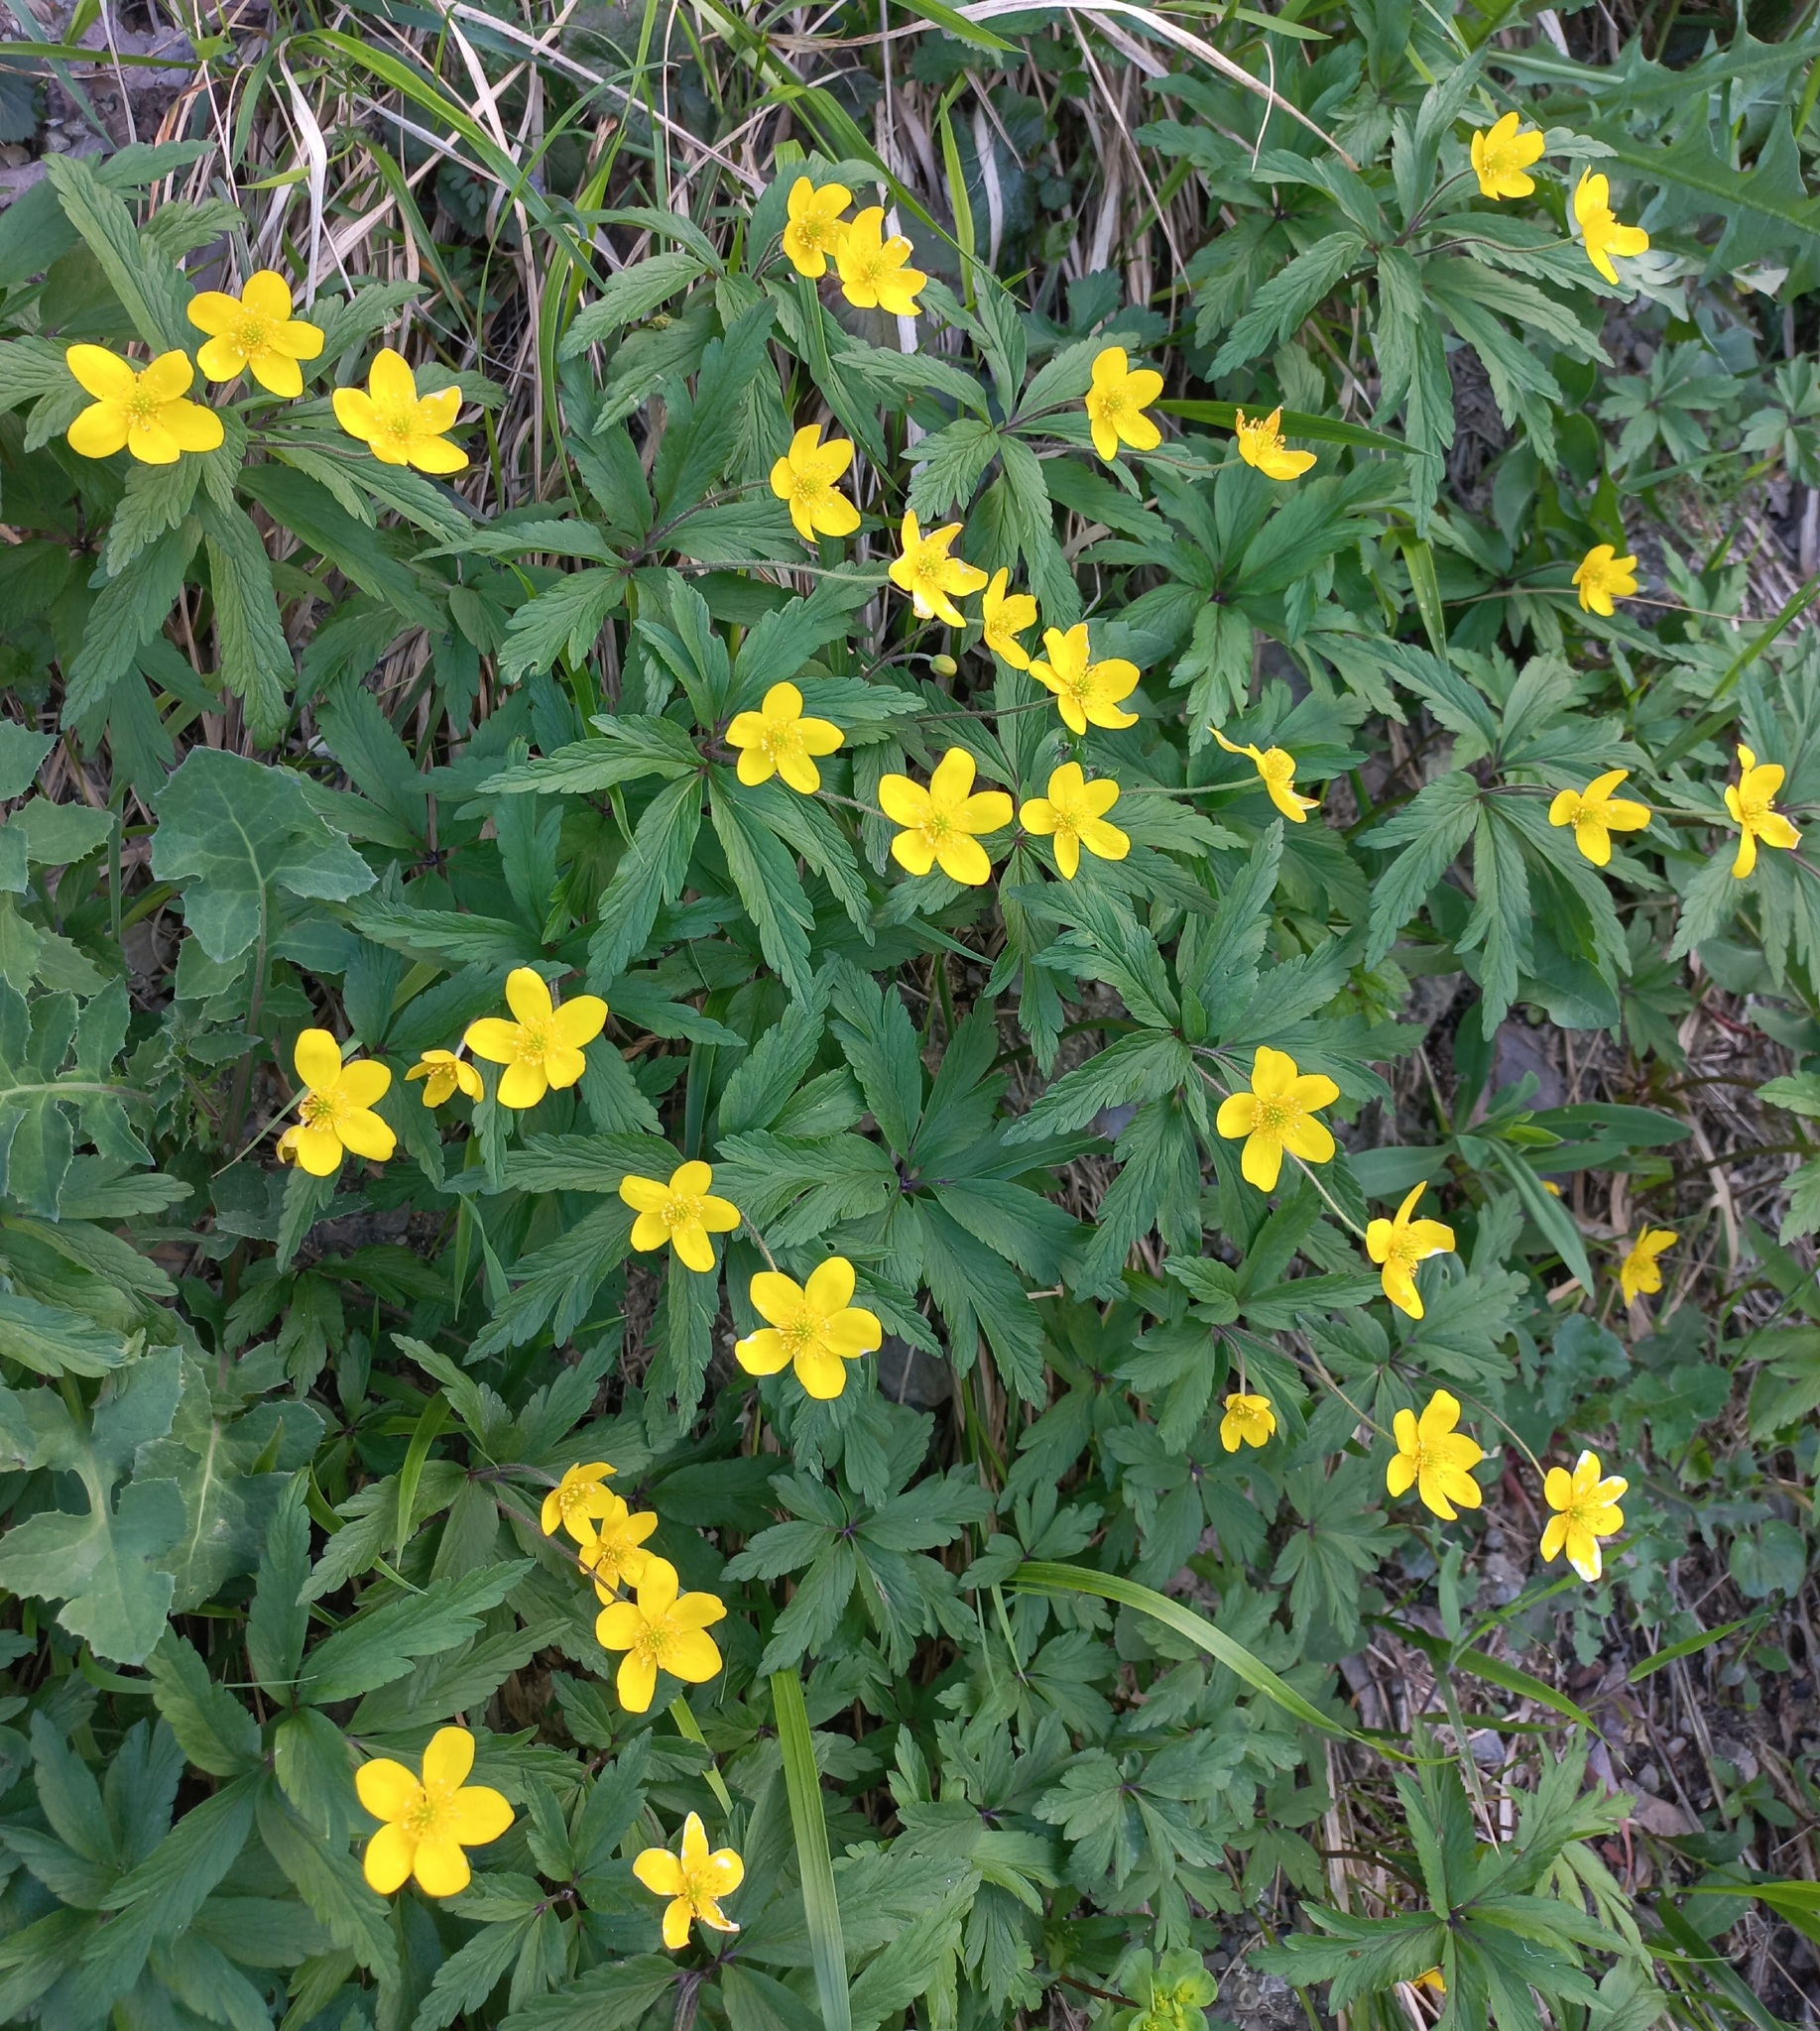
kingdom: Plantae
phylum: Tracheophyta
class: Magnoliopsida
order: Ranunculales
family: Ranunculaceae
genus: Anemone
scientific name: Anemone ranunculoides
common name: Yellow anemone
